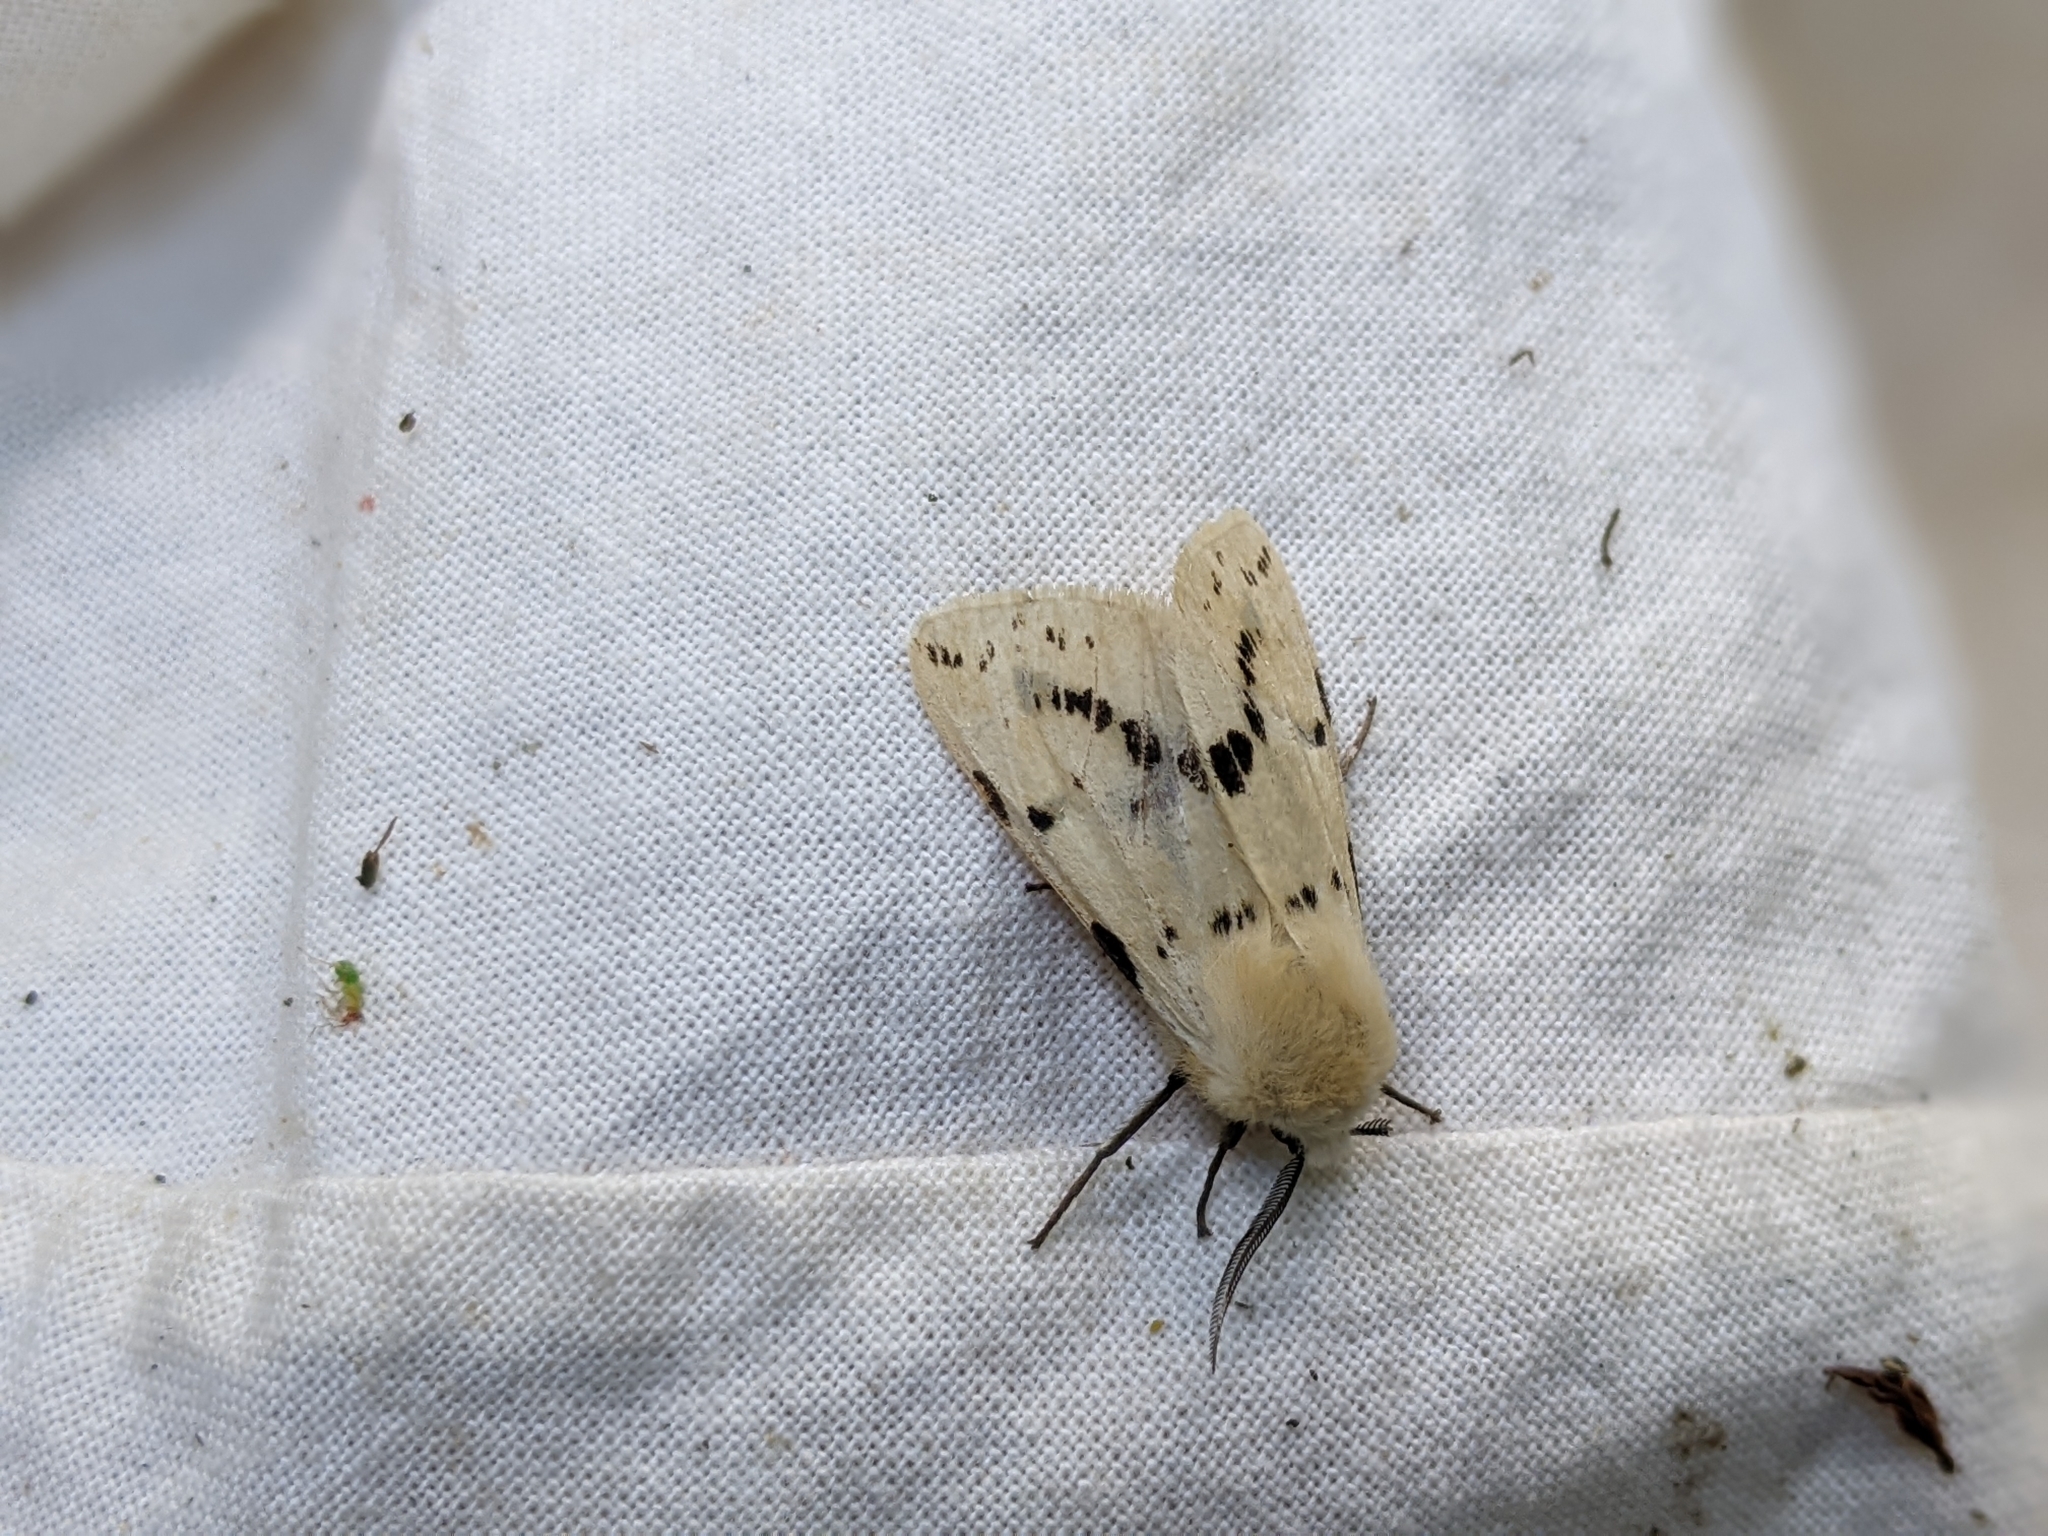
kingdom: Animalia
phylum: Arthropoda
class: Insecta
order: Lepidoptera
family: Erebidae
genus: Spilarctia
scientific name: Spilarctia lutea
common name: Buff ermine
